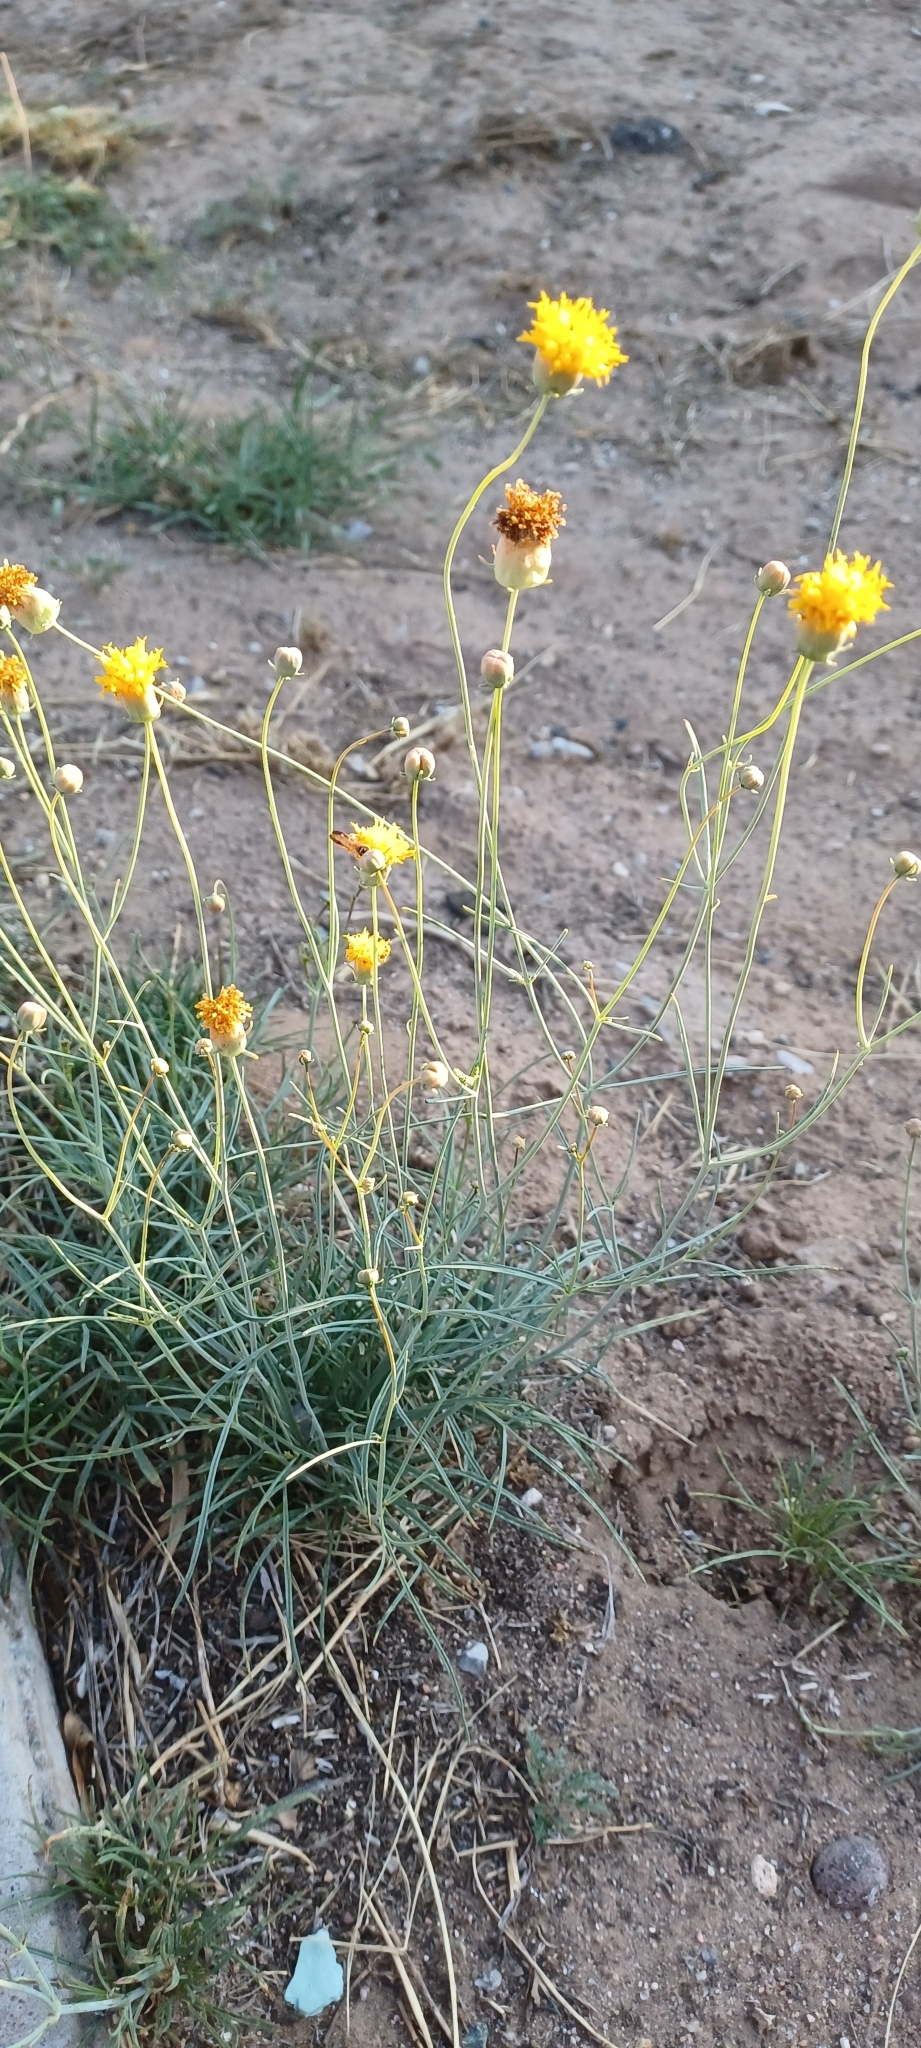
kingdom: Plantae
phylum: Tracheophyta
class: Magnoliopsida
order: Asterales
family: Asteraceae
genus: Thelesperma
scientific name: Thelesperma megapotamicum
